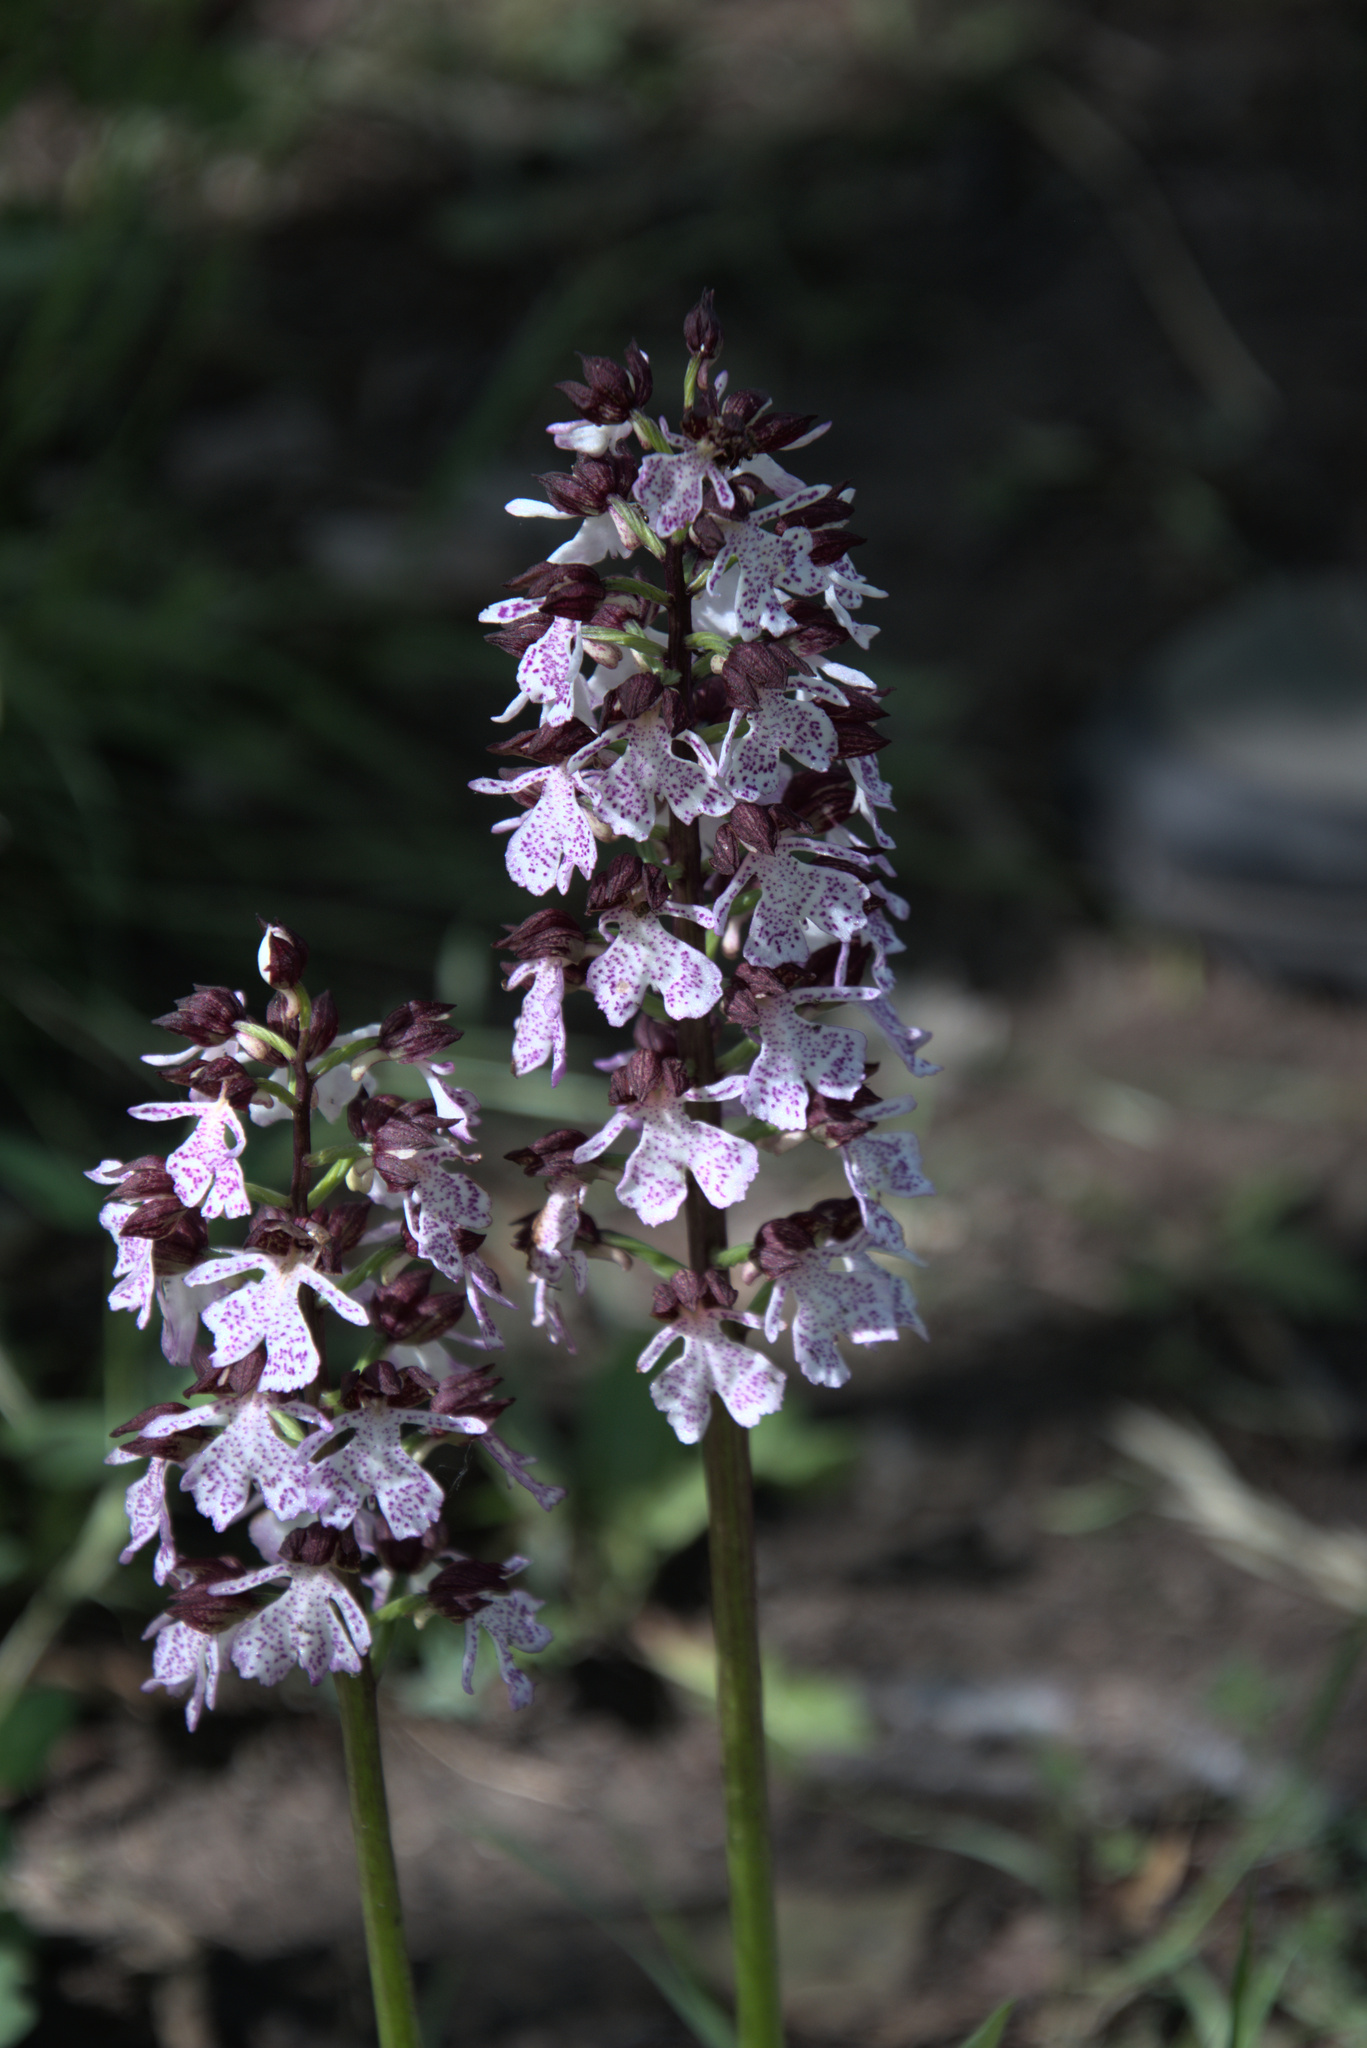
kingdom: Plantae
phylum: Tracheophyta
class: Liliopsida
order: Asparagales
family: Orchidaceae
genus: Orchis
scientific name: Orchis purpurea
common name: Lady orchid
